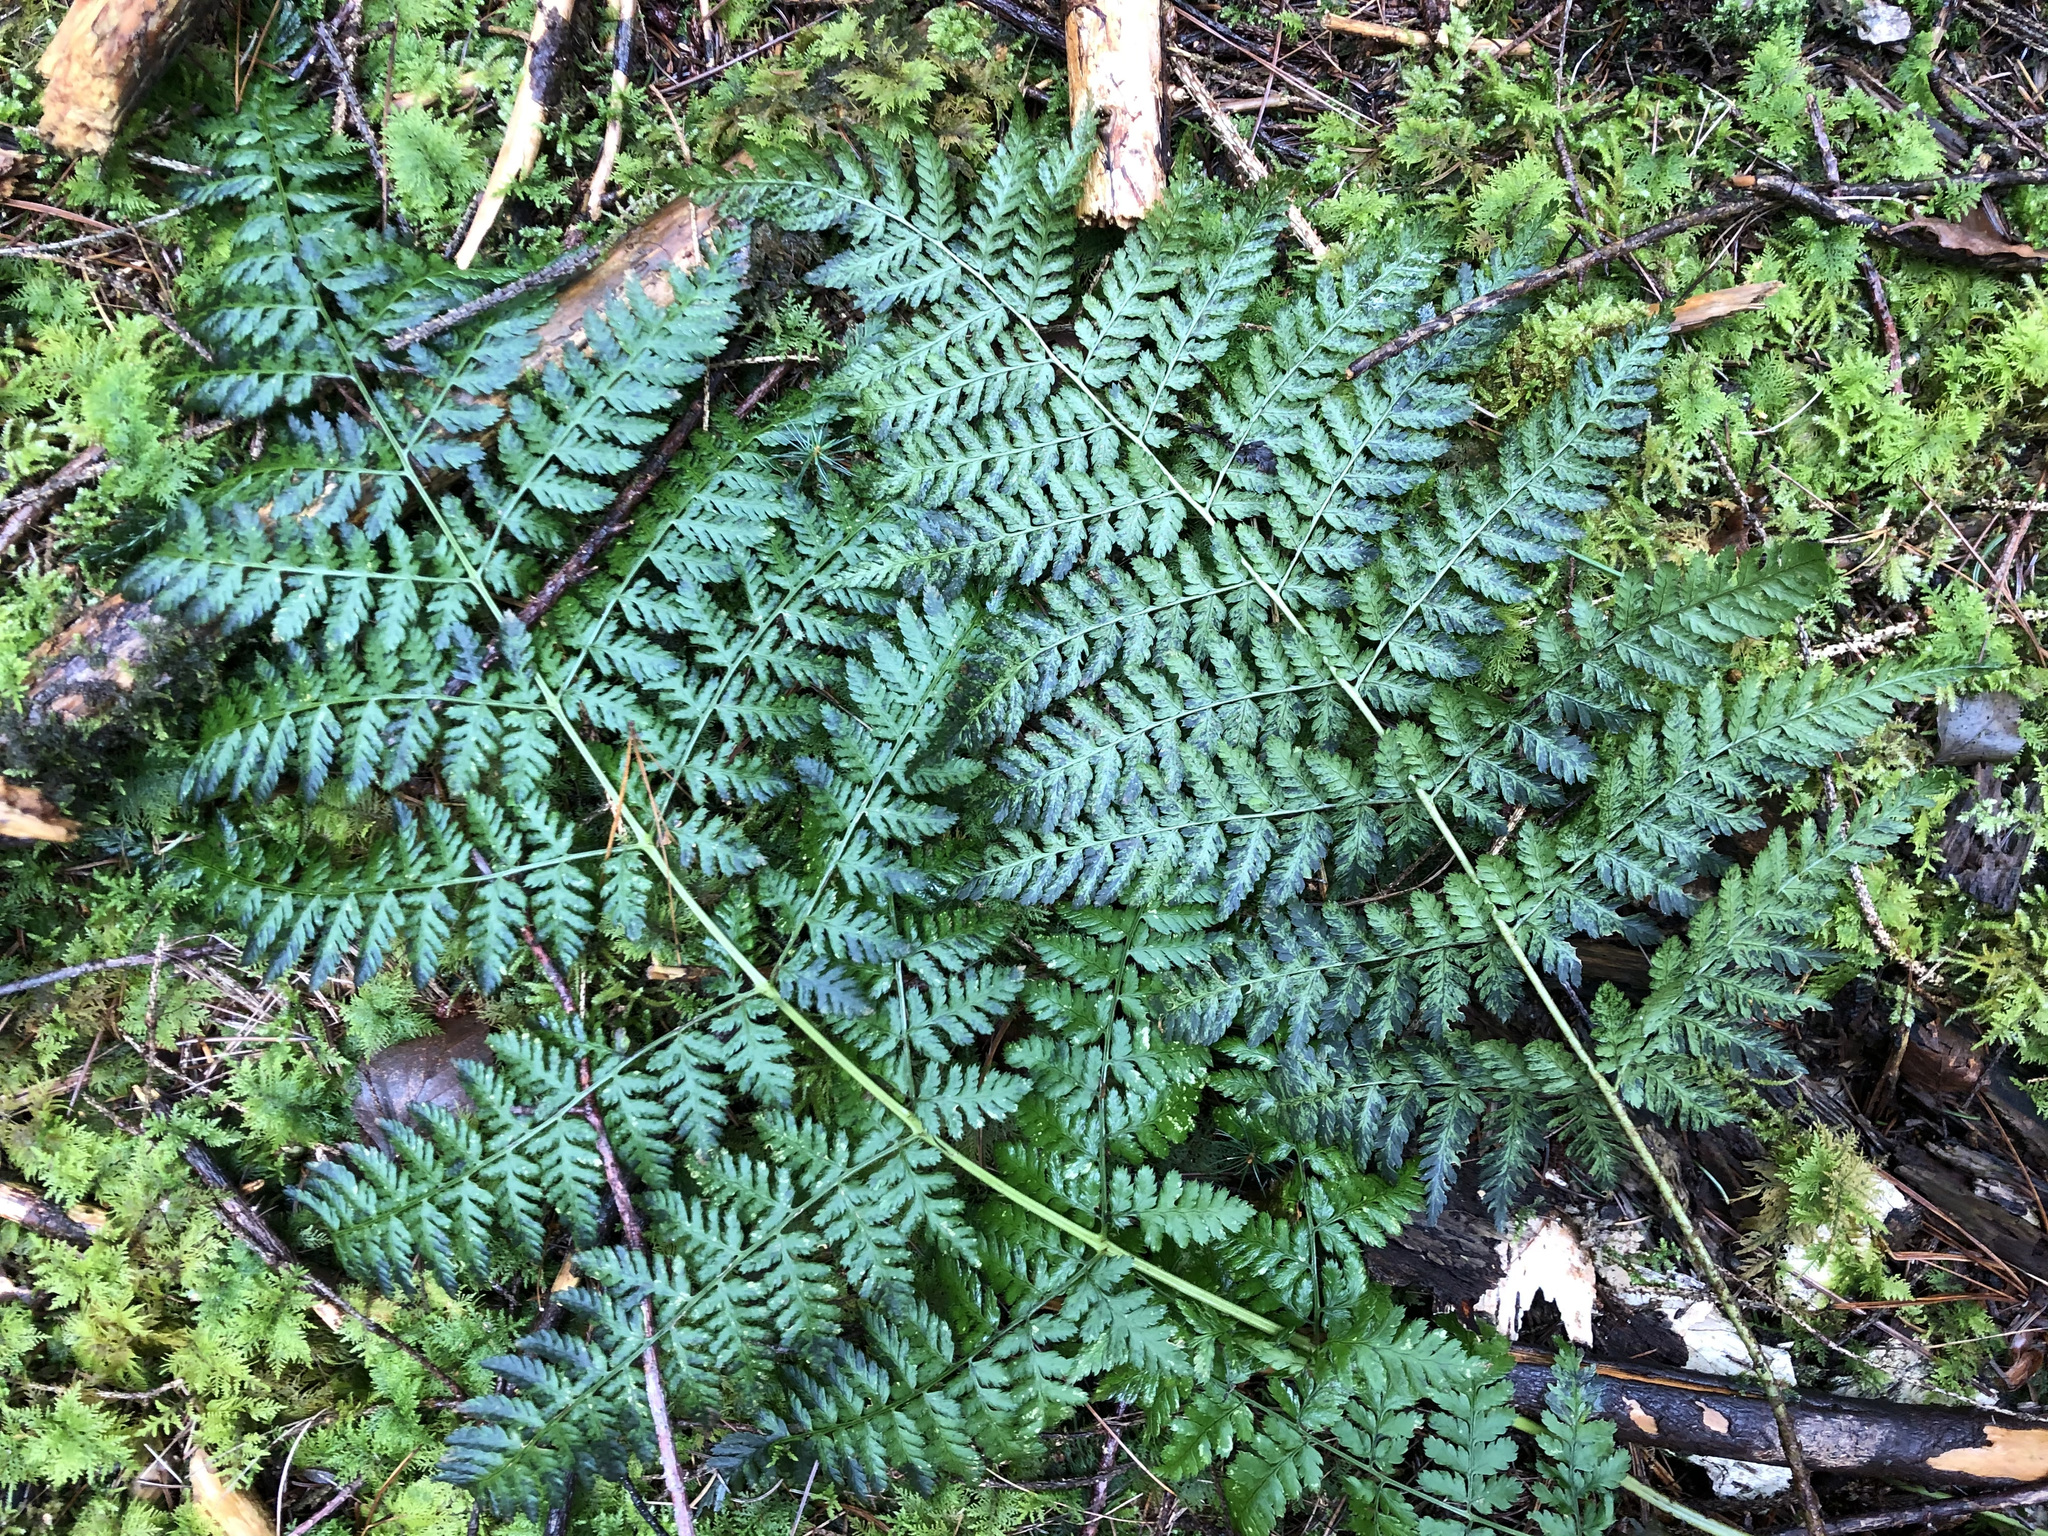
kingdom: Plantae
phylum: Tracheophyta
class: Polypodiopsida
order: Polypodiales
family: Dryopteridaceae
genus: Dryopteris
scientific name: Dryopteris dilatata
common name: Broad buckler-fern
